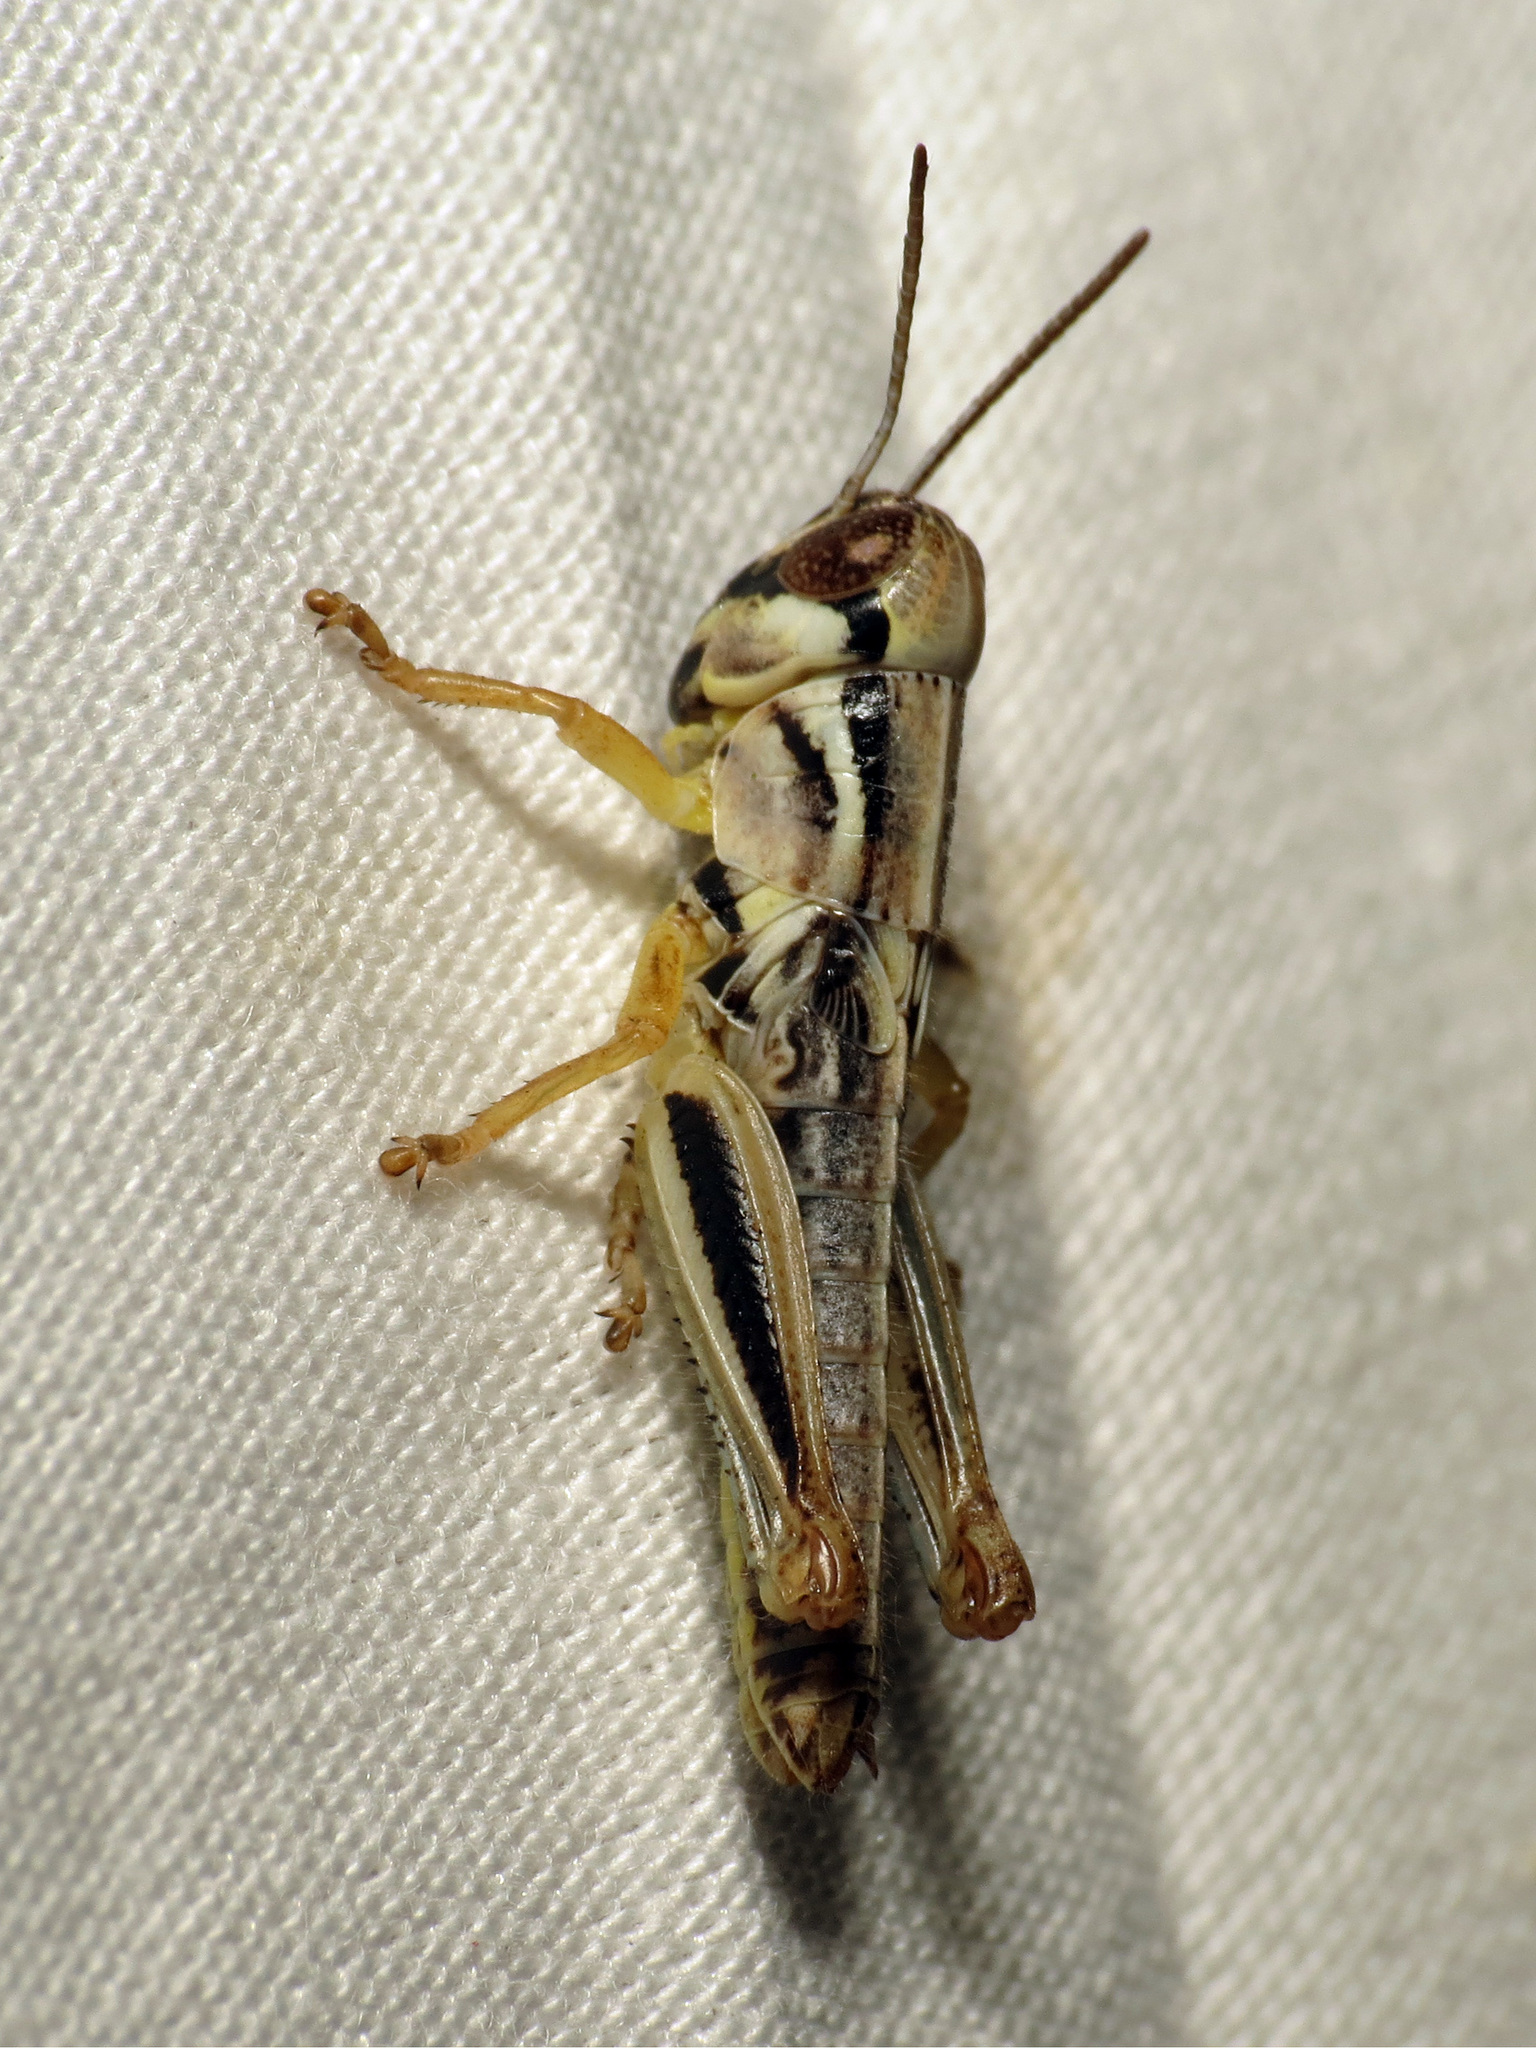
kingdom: Animalia
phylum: Arthropoda
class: Insecta
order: Orthoptera
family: Acrididae
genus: Phoetaliotes
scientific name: Phoetaliotes nebrascensis
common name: Large-headed grasshopper
